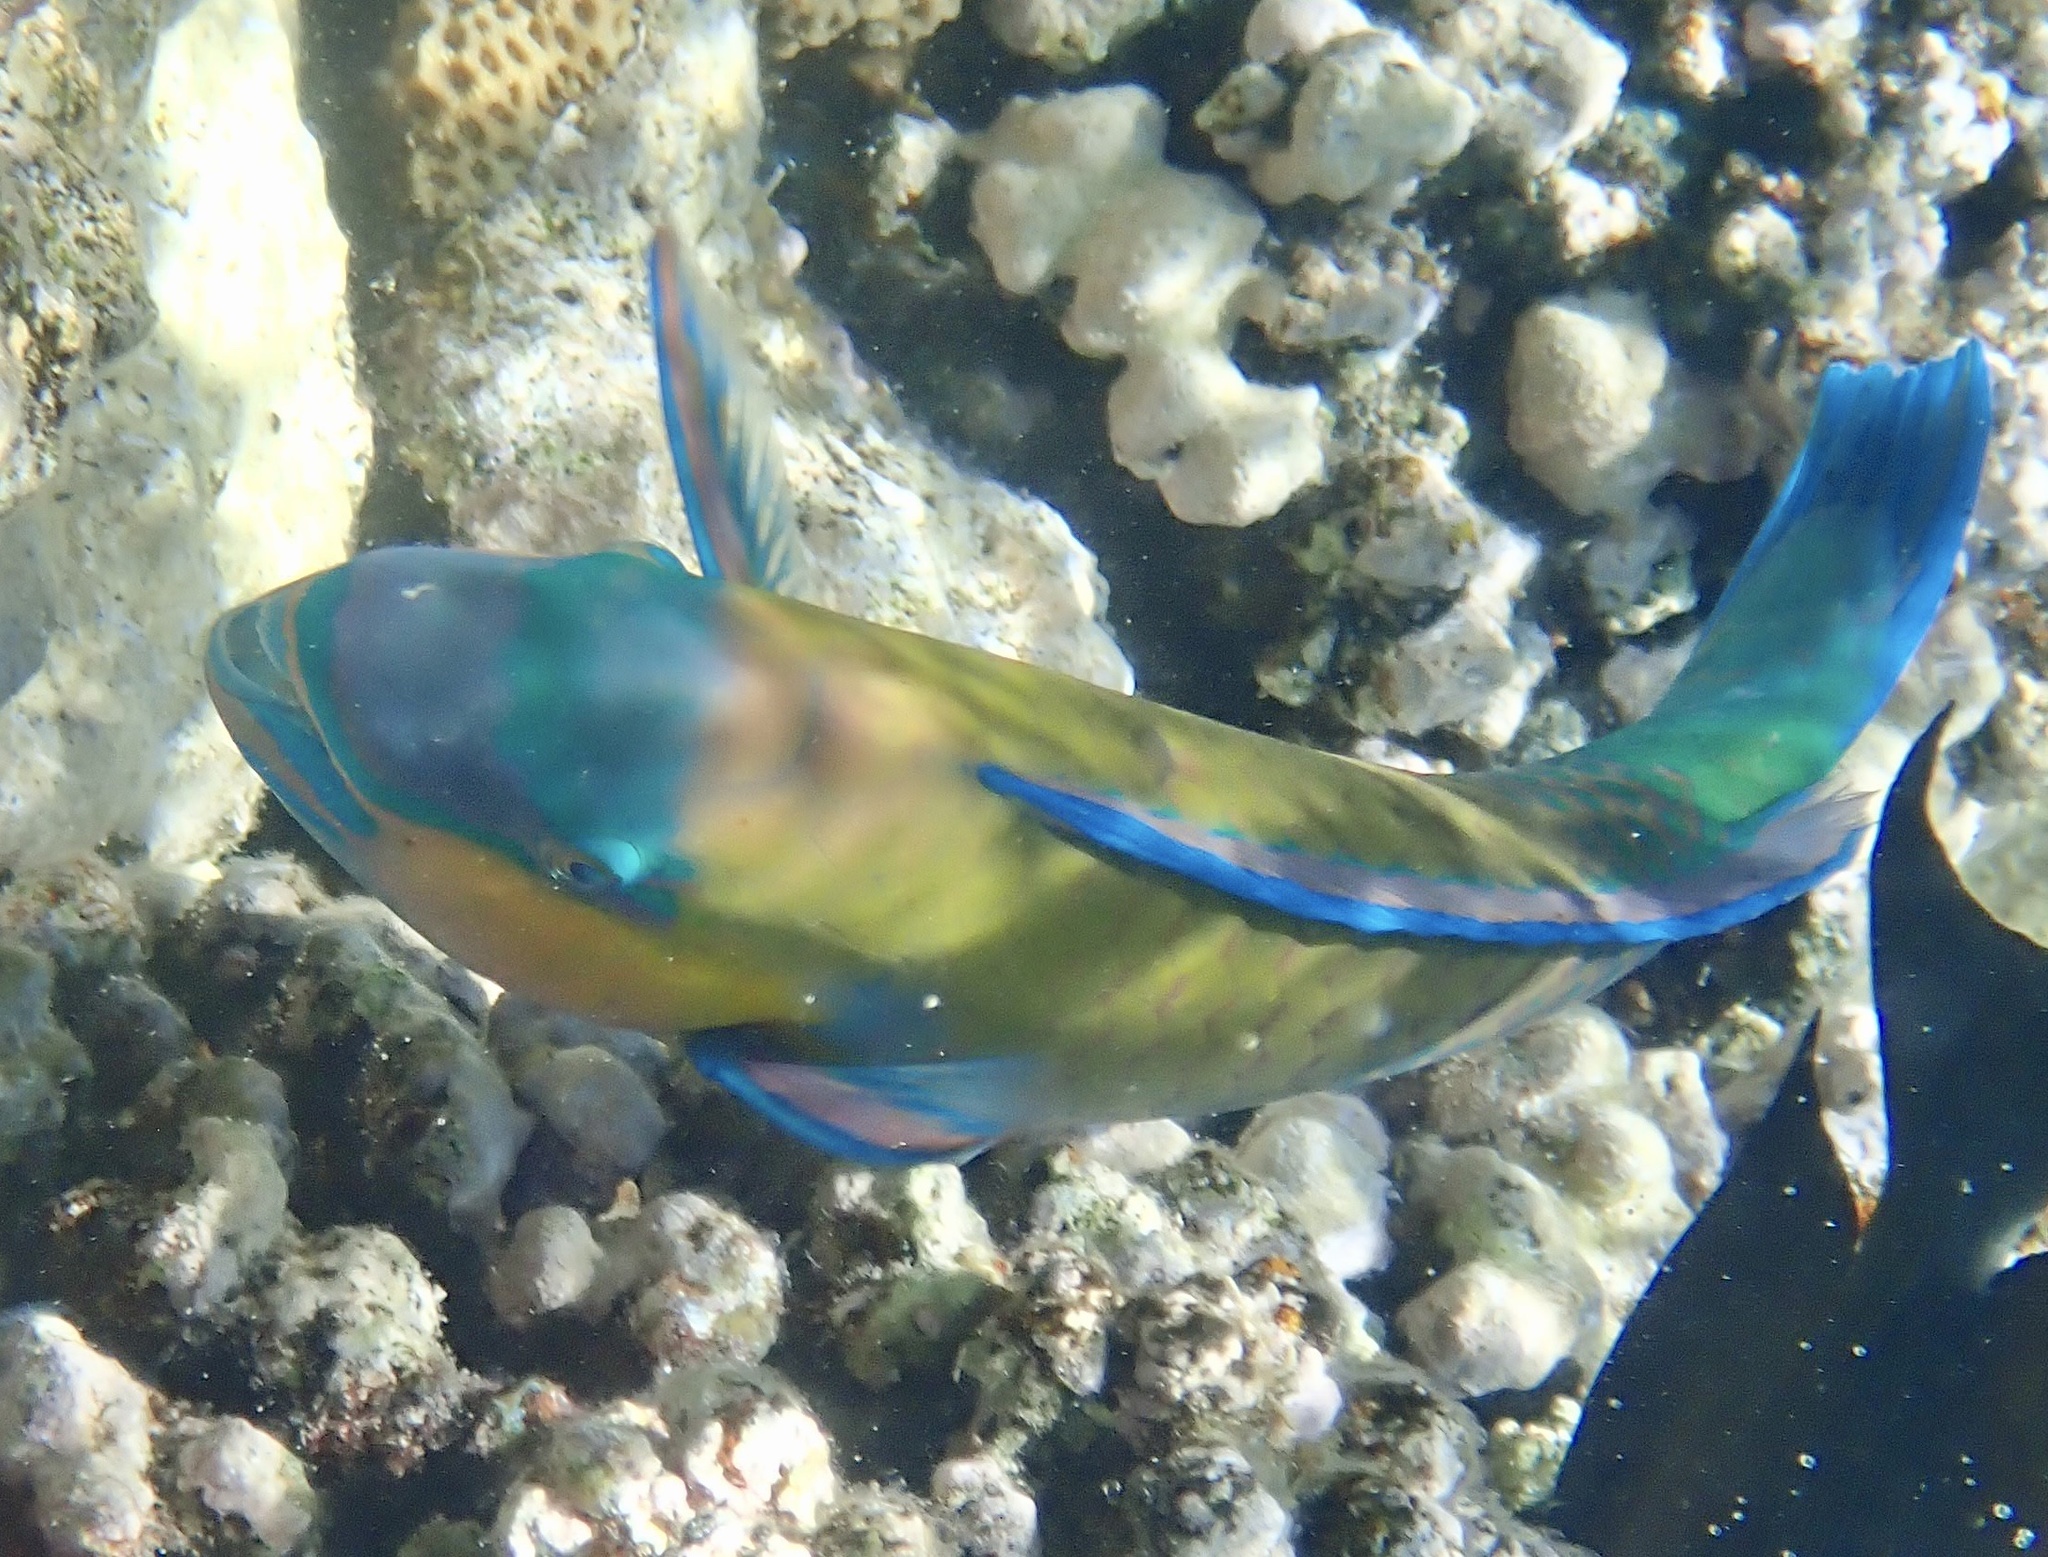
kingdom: Animalia
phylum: Chordata
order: Perciformes
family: Scaridae
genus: Chlorurus
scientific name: Chlorurus sordidus
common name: Bullethead parrotfish
